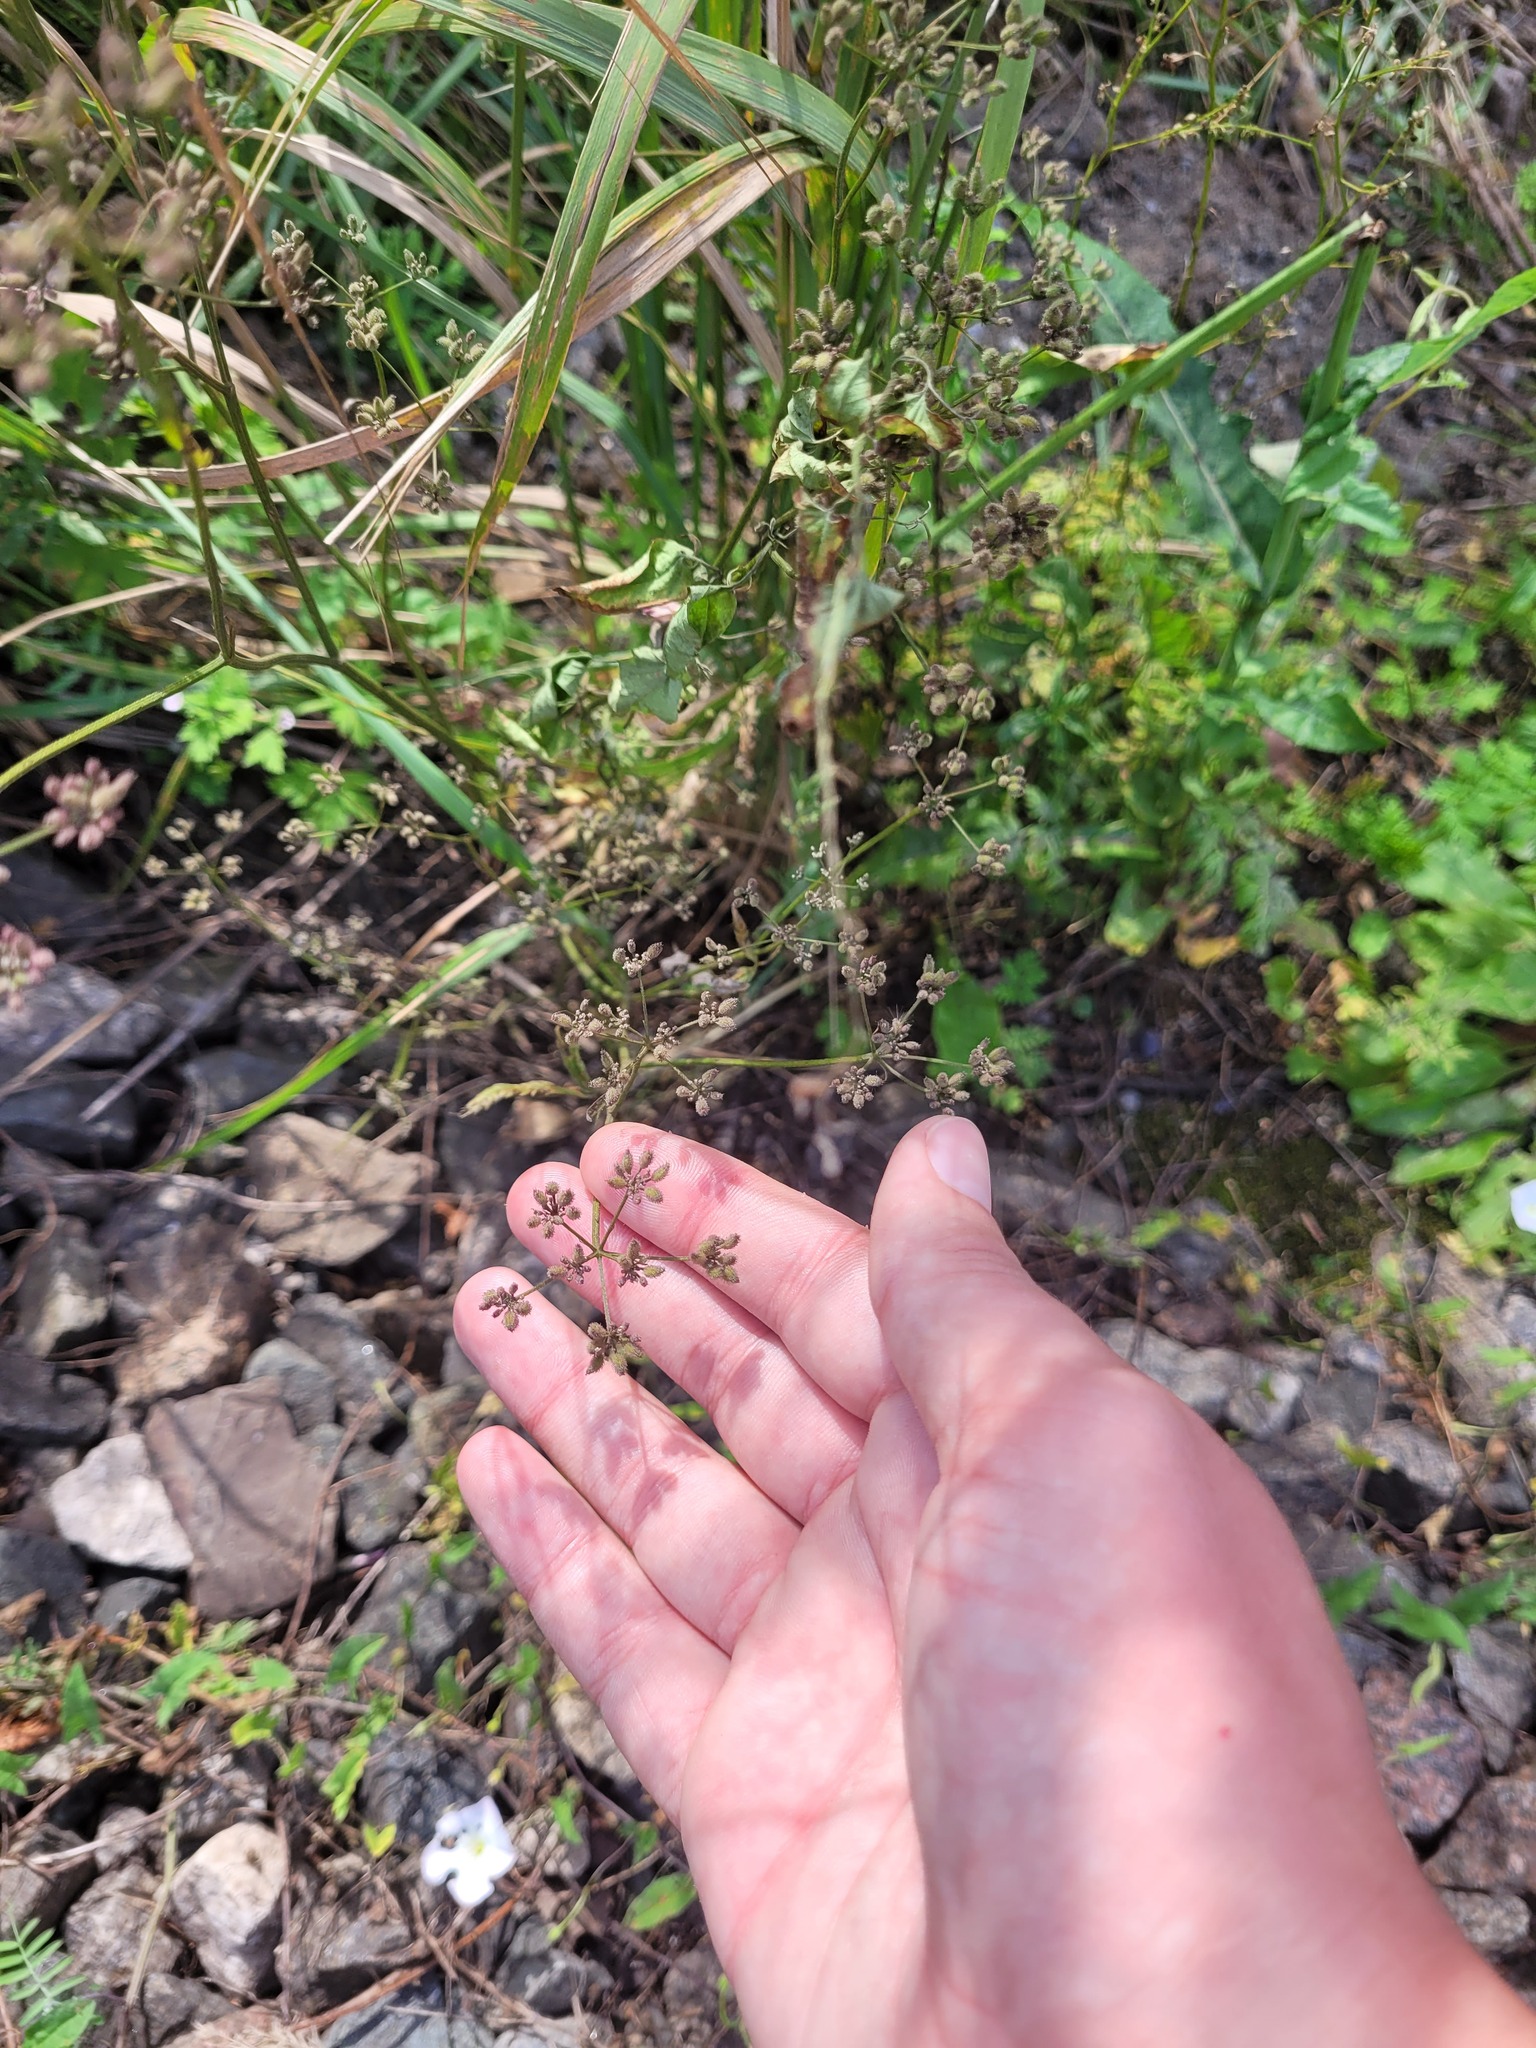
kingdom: Plantae
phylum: Tracheophyta
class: Magnoliopsida
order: Apiales
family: Apiaceae
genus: Torilis
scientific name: Torilis japonica
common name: Upright hedge-parsley
